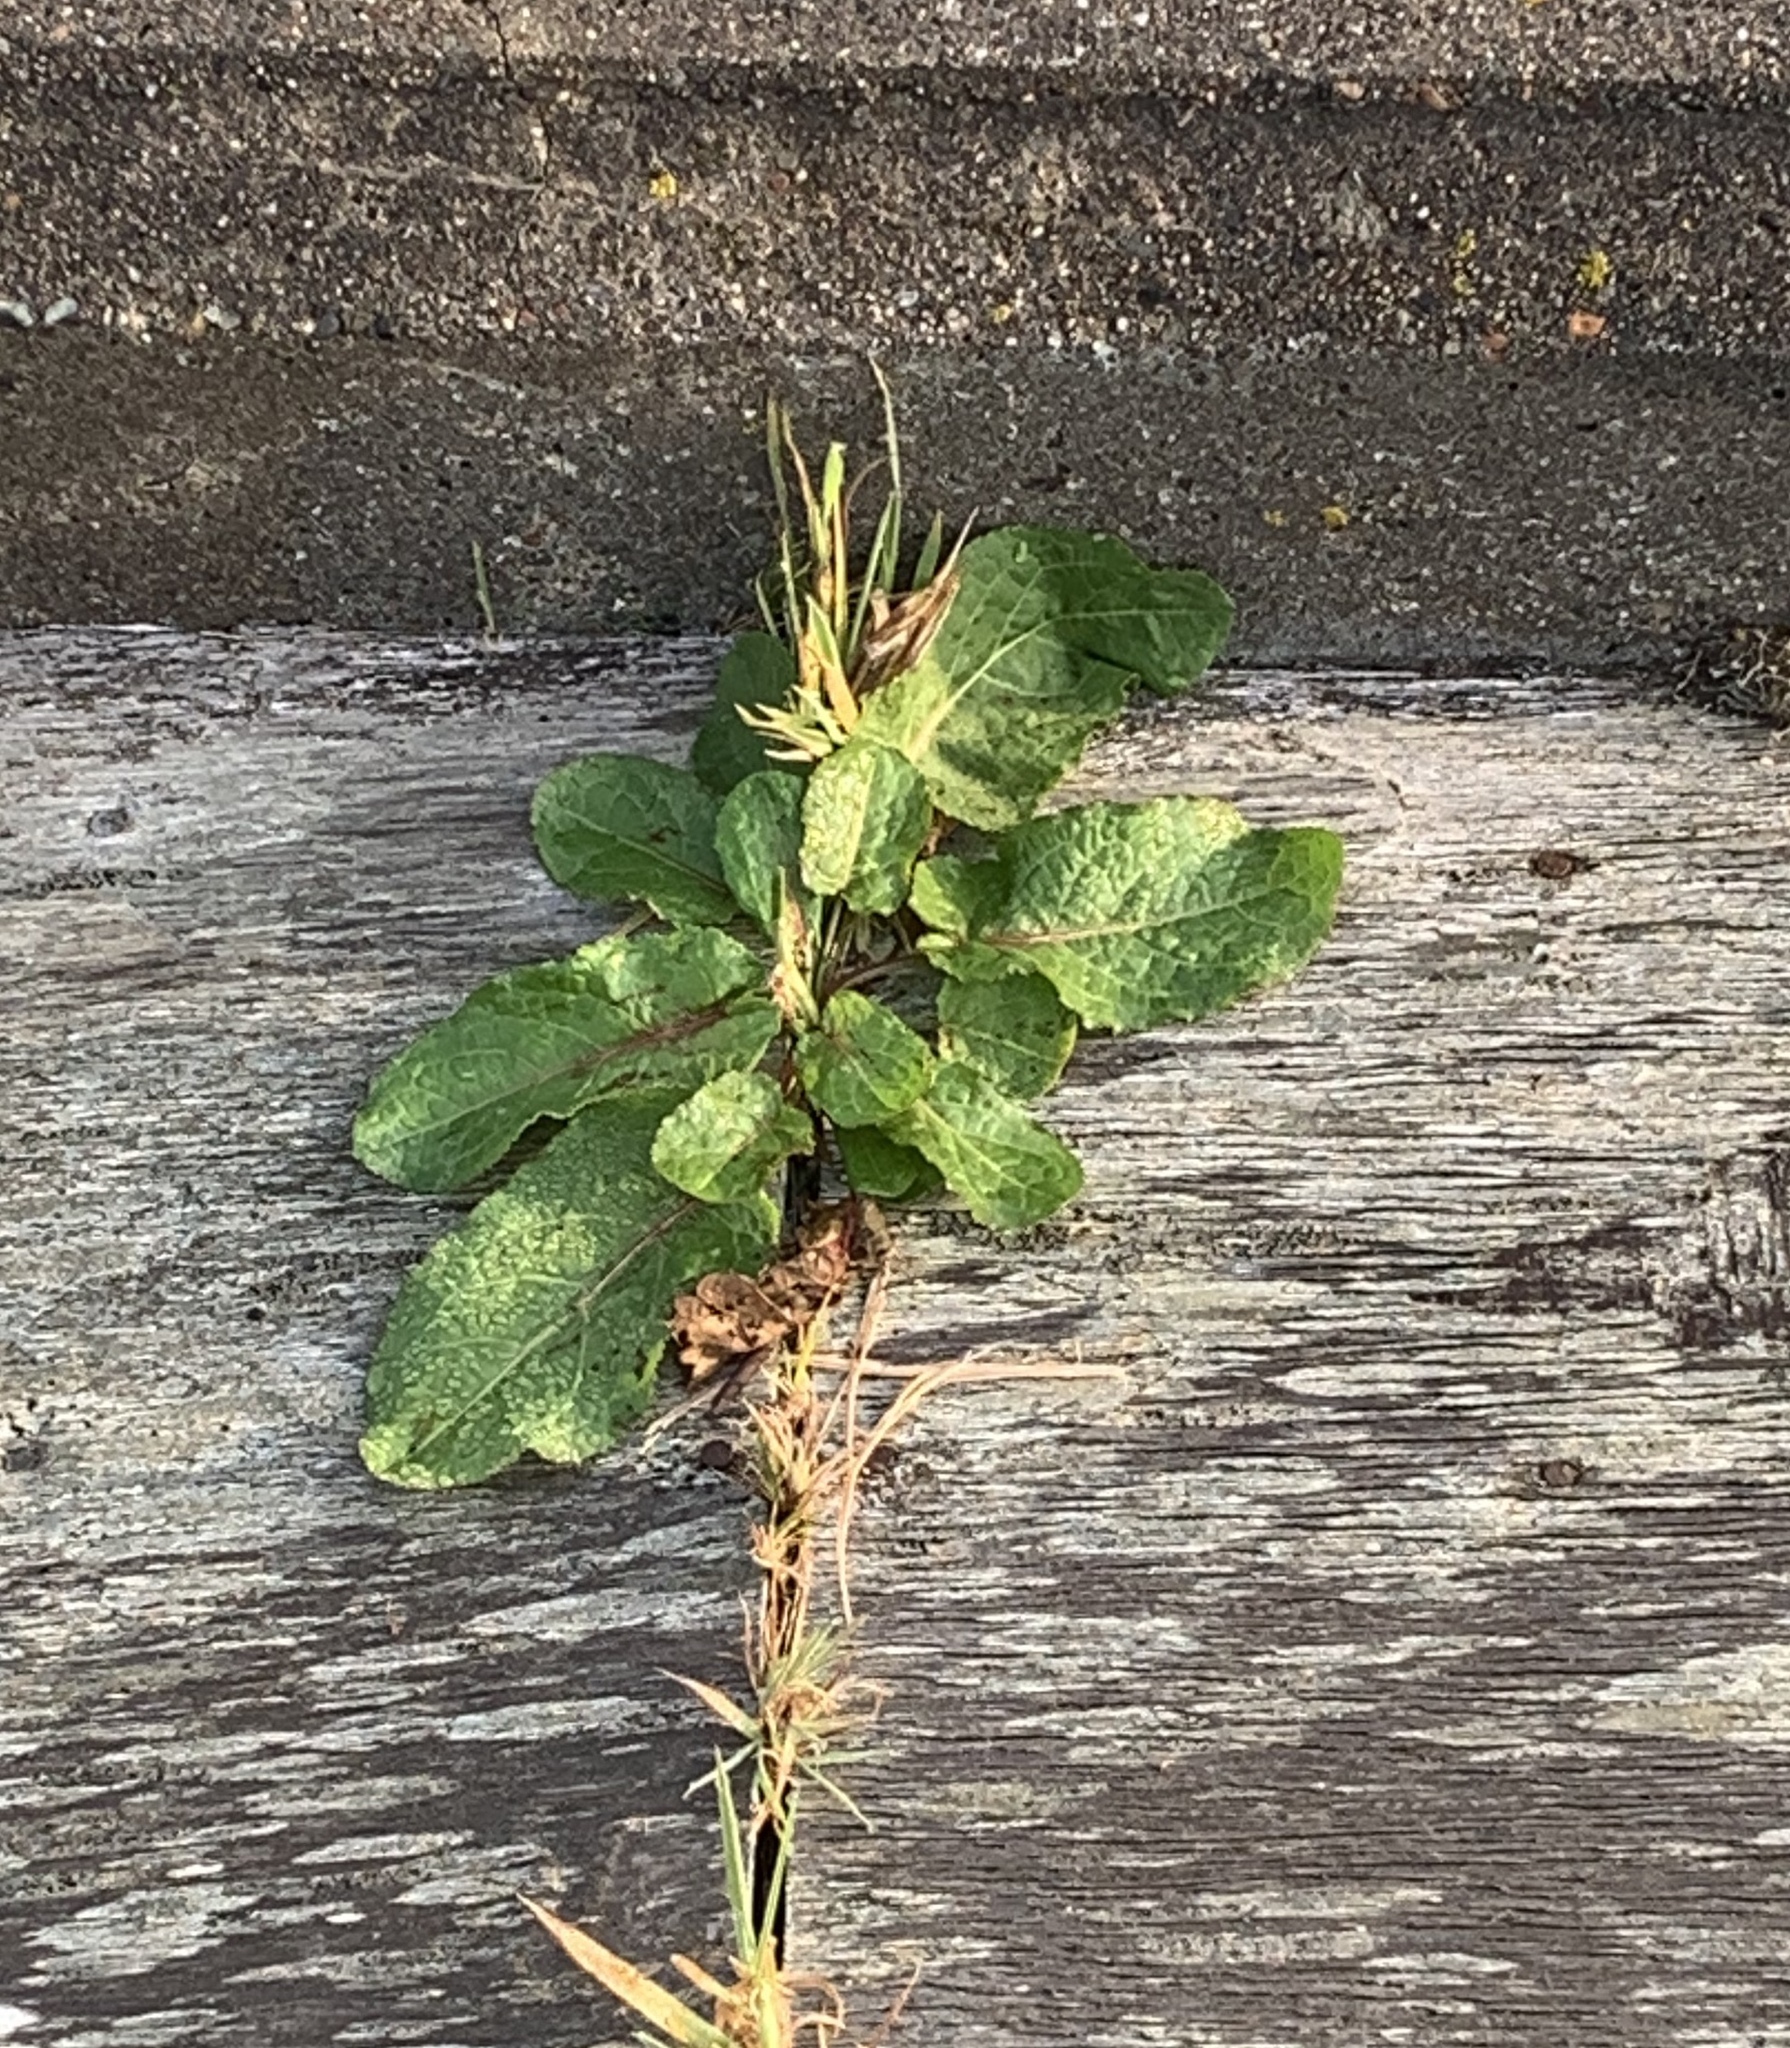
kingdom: Plantae
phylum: Tracheophyta
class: Magnoliopsida
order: Caryophyllales
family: Polygonaceae
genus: Rumex
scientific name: Rumex obtusifolius
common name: Bitter dock
